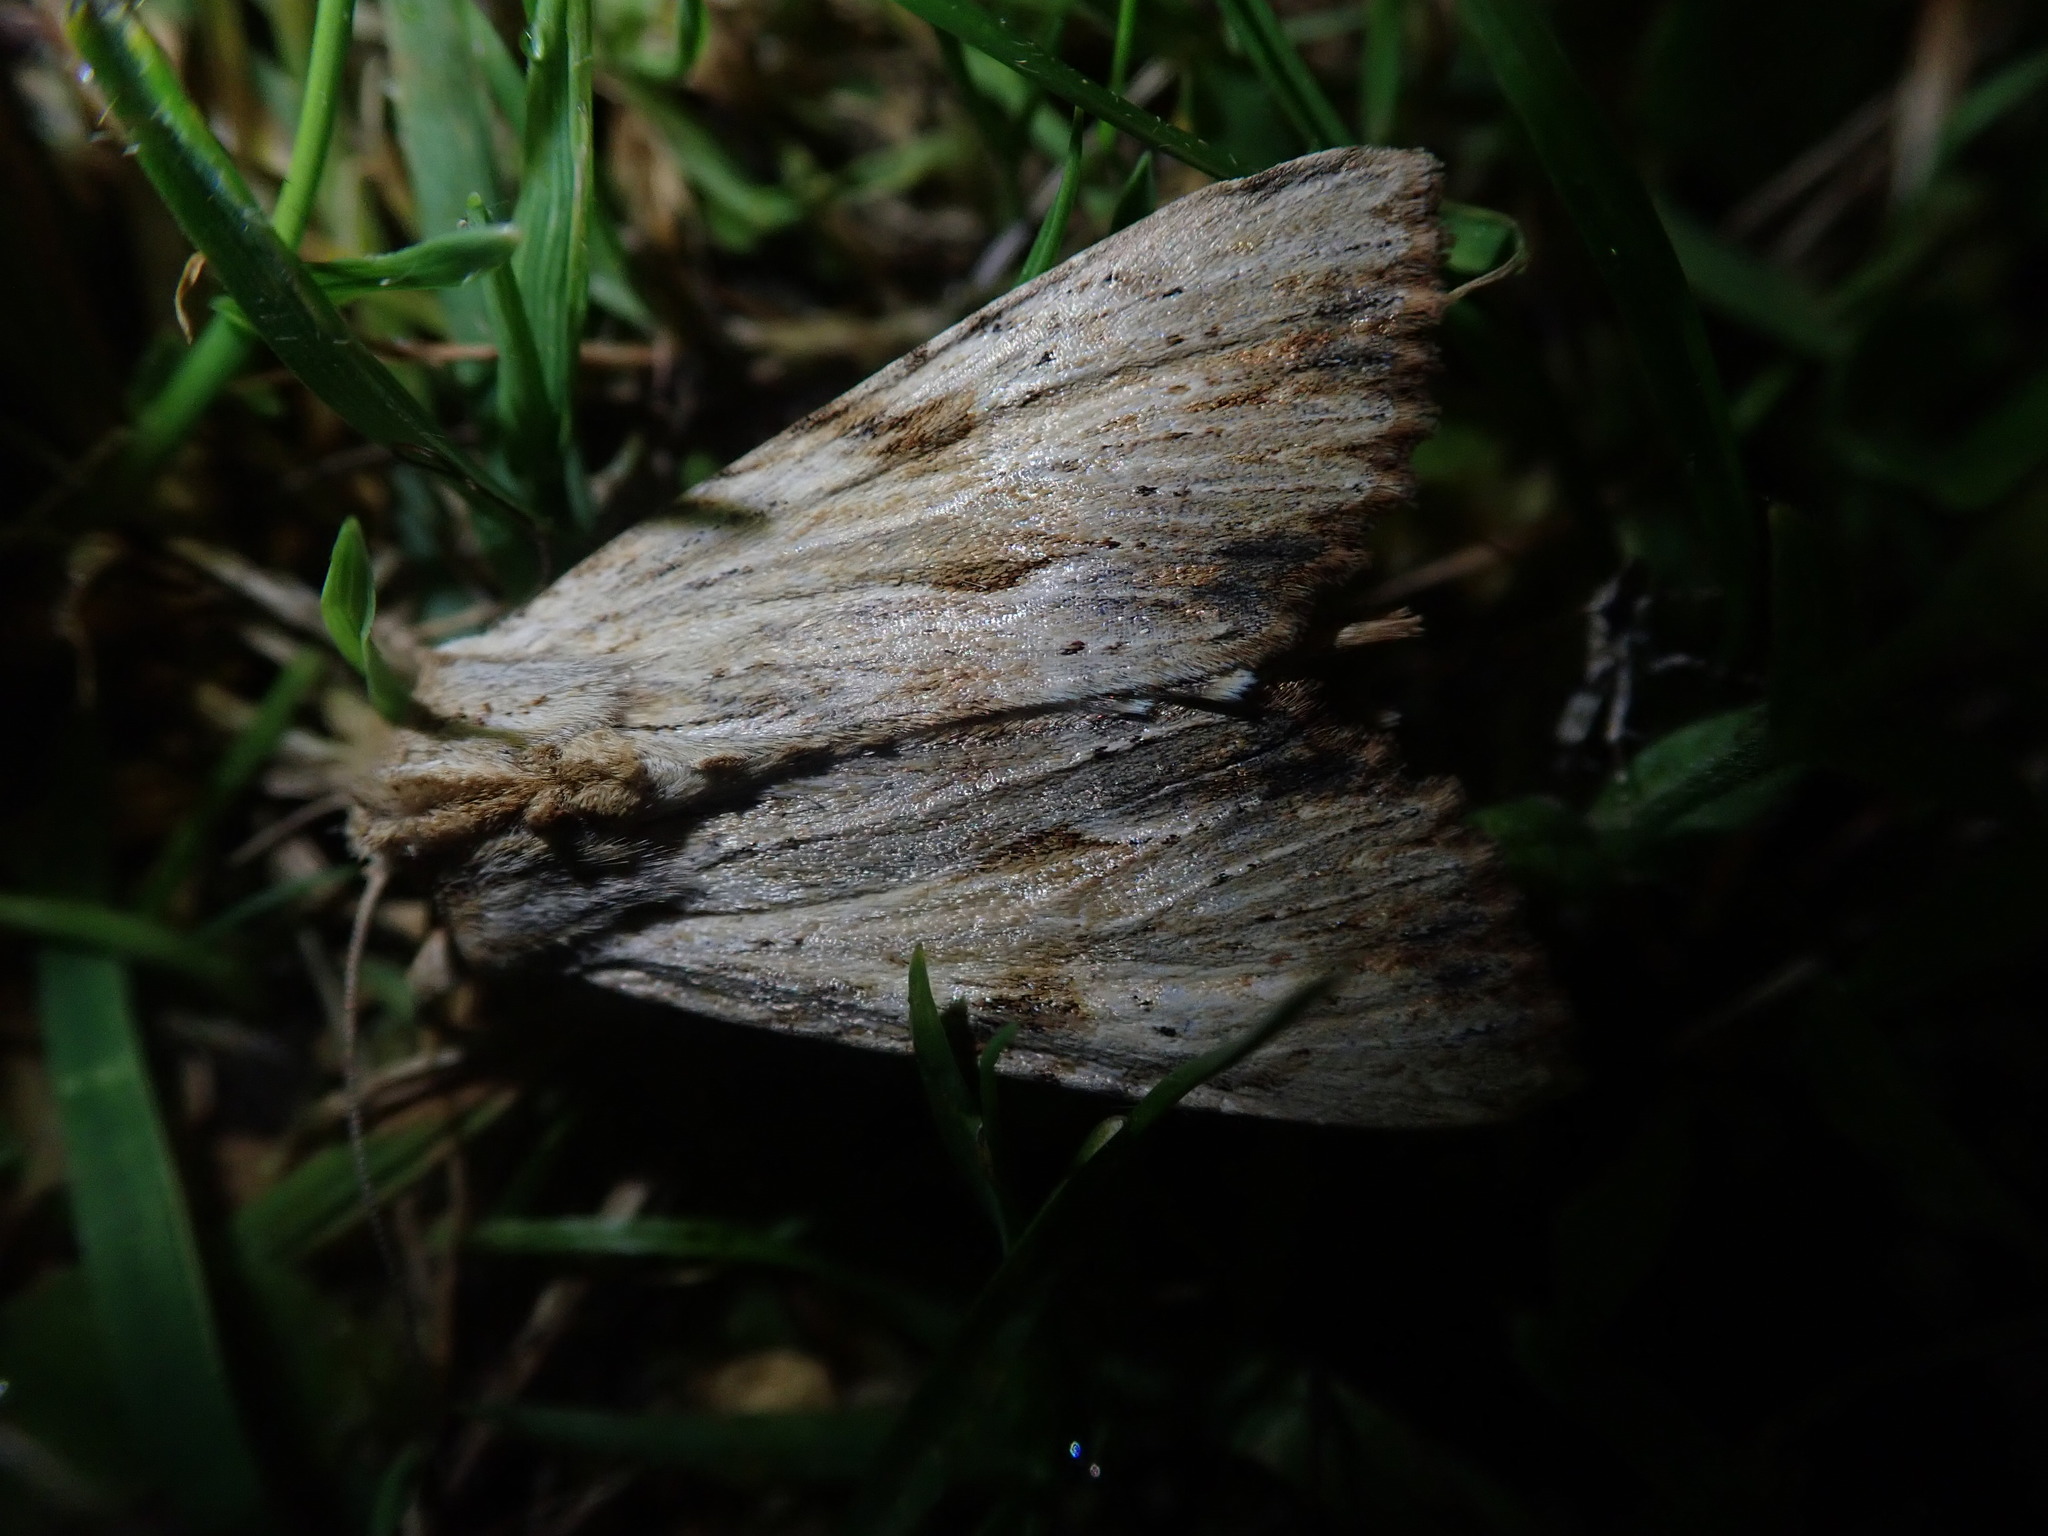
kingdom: Animalia
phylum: Arthropoda
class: Insecta
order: Lepidoptera
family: Noctuidae
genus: Apamea
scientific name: Apamea lithoxylaea
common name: Light arches
